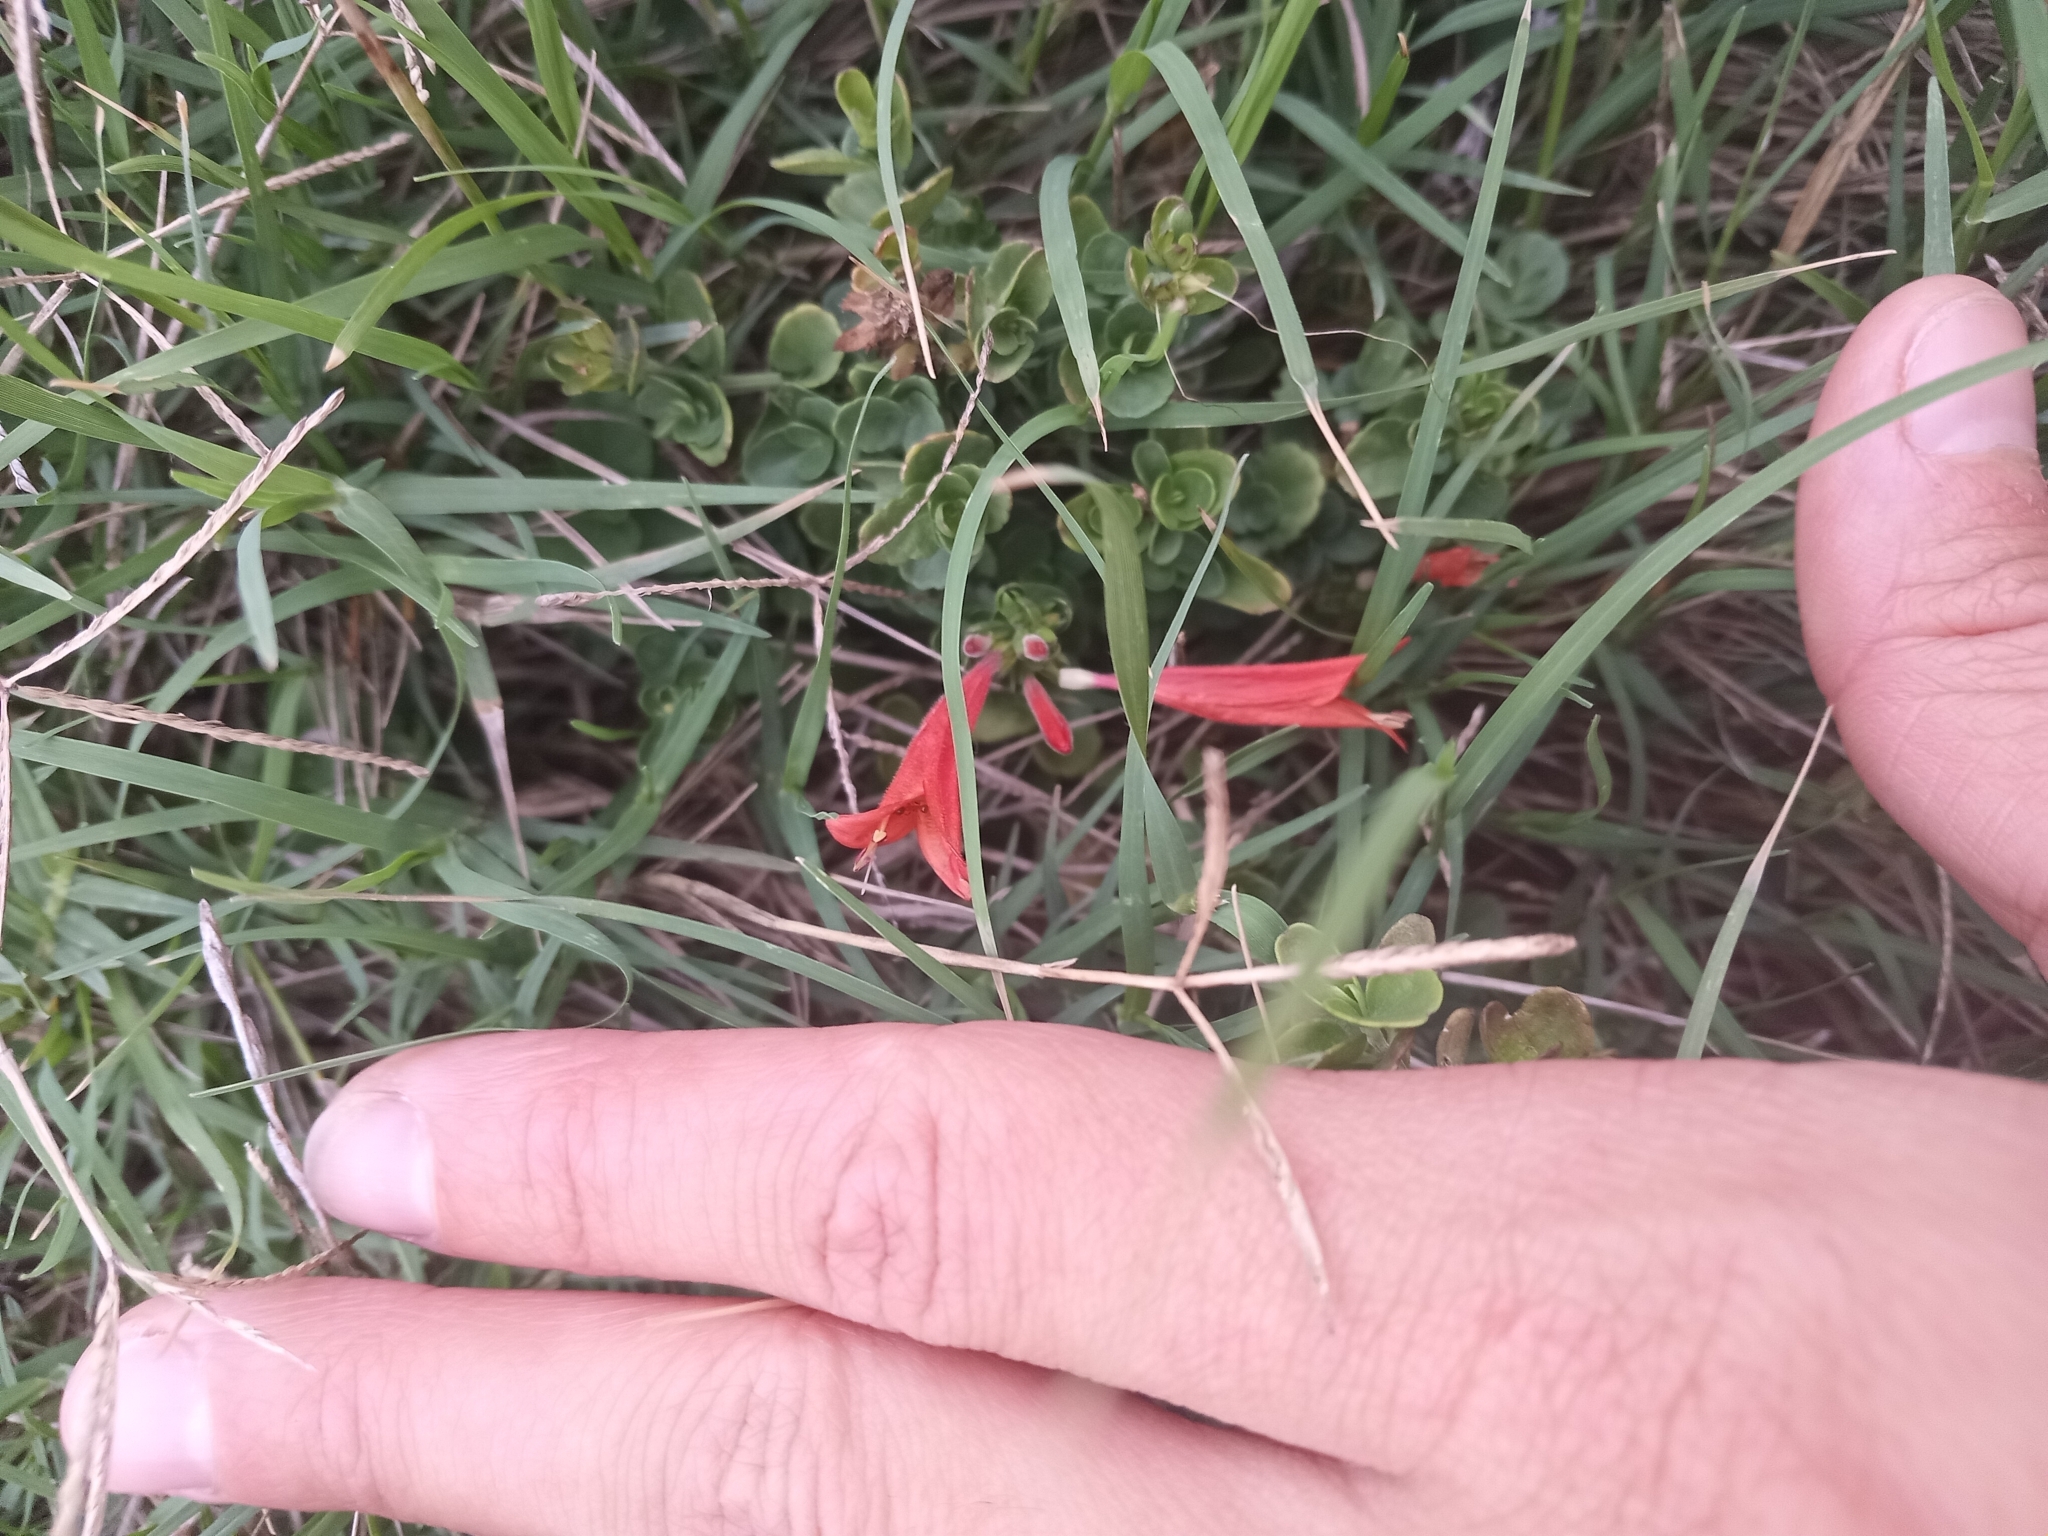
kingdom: Plantae
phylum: Tracheophyta
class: Magnoliopsida
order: Lamiales
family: Acanthaceae
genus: Dicliptera
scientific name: Dicliptera squarrosa
